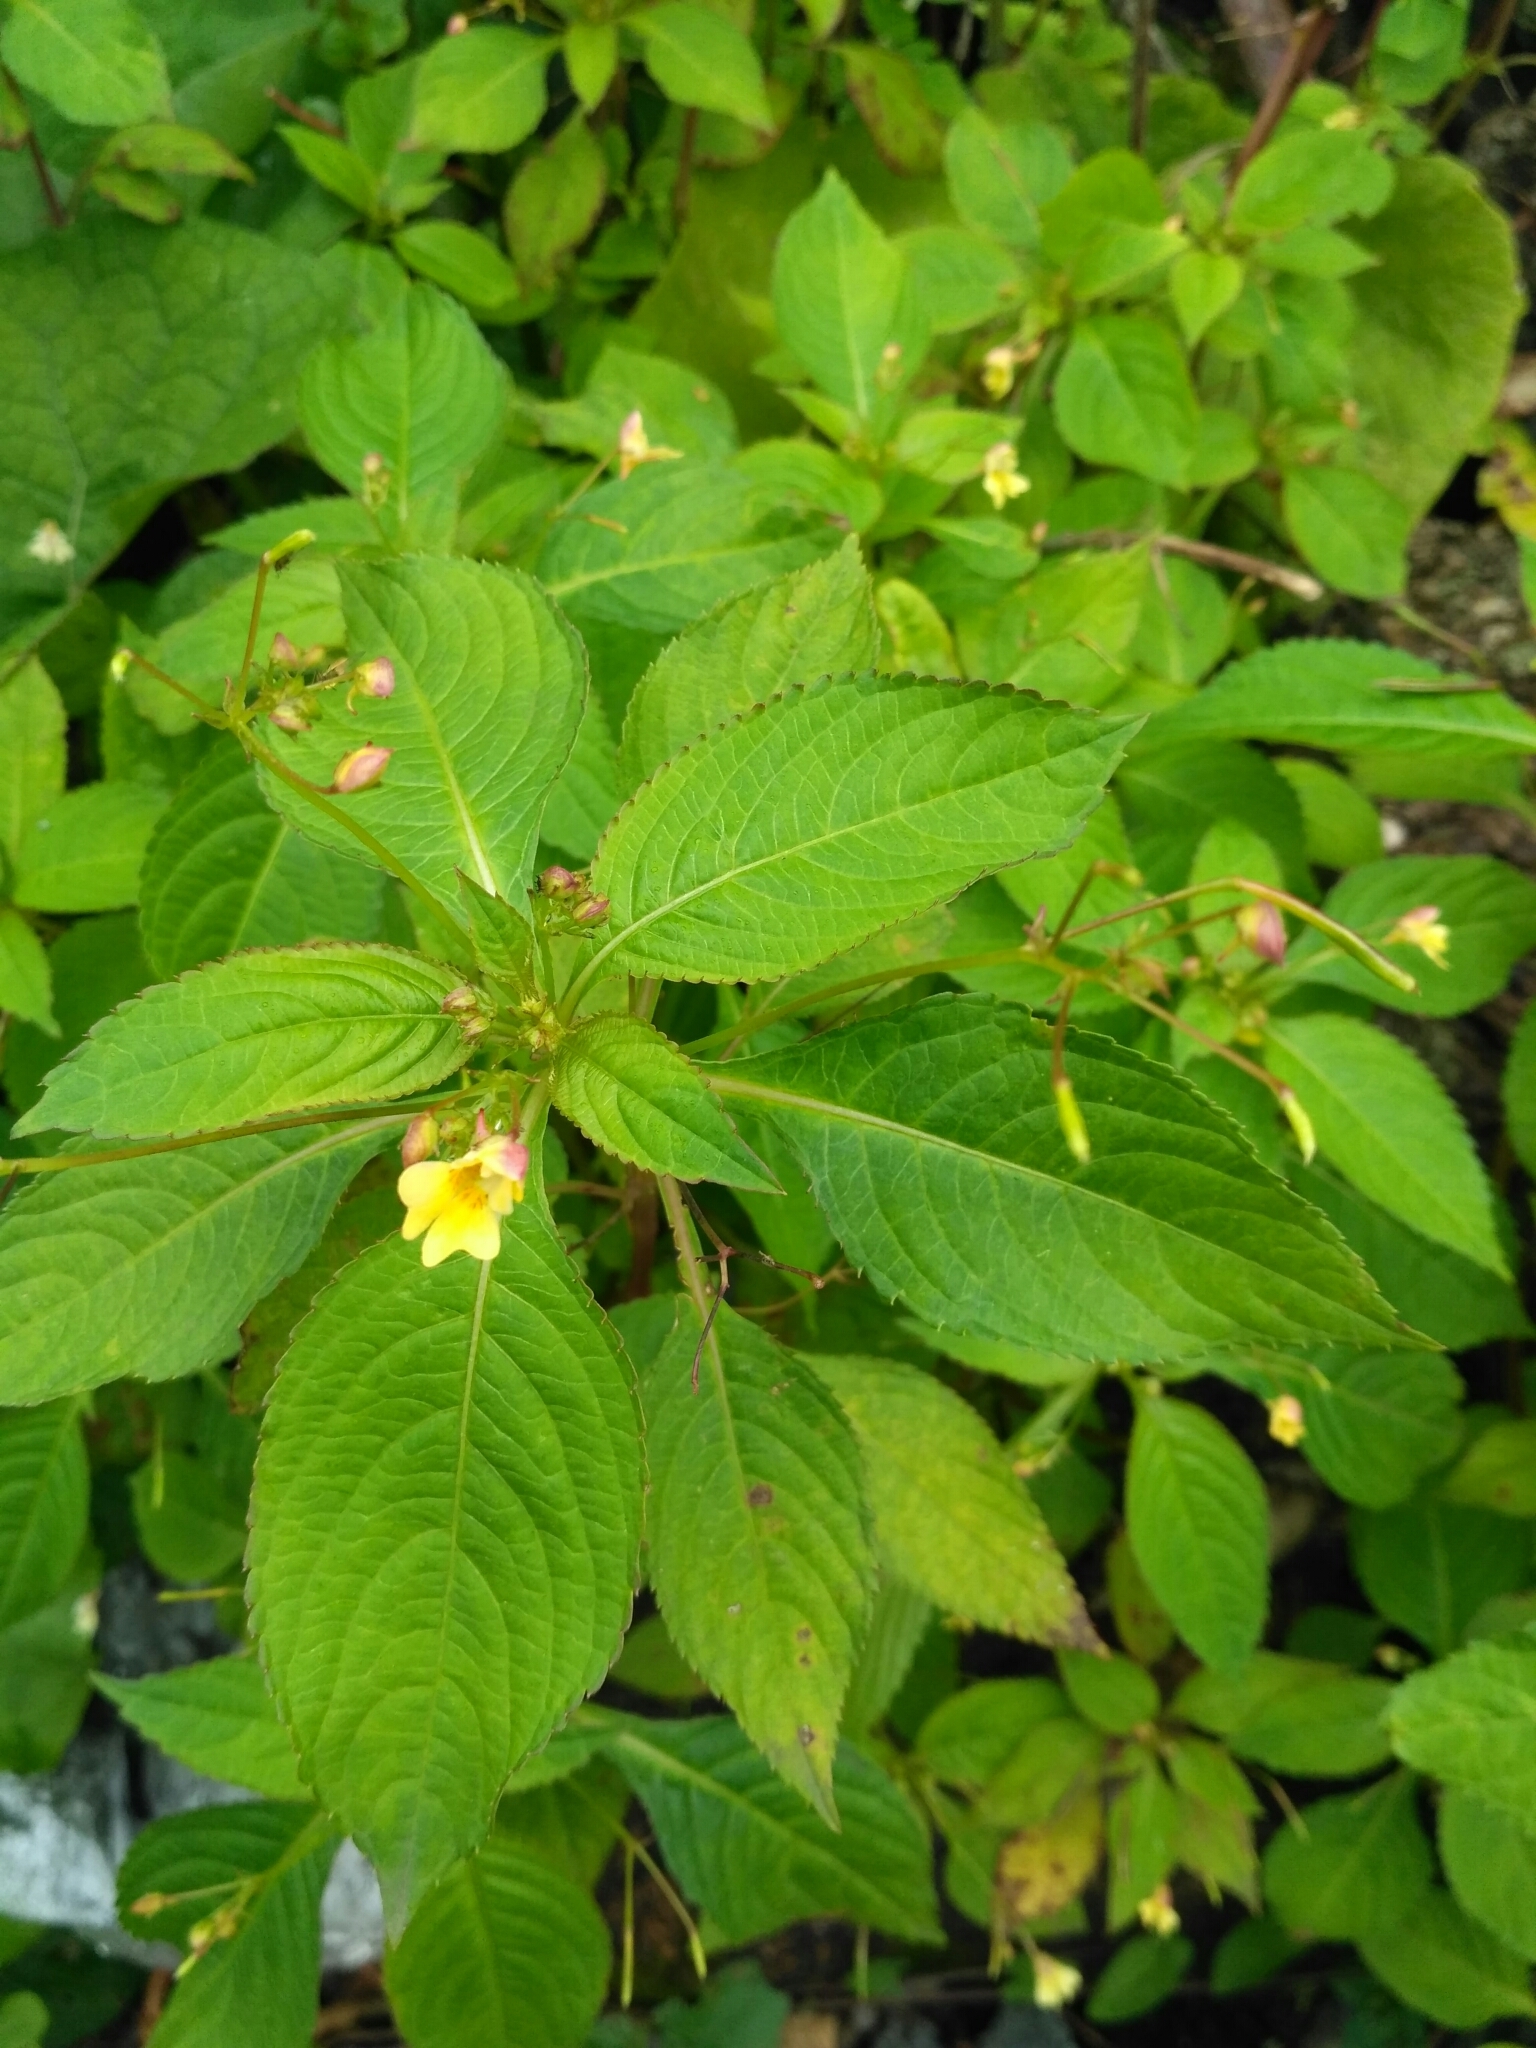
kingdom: Plantae
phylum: Tracheophyta
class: Magnoliopsida
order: Ericales
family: Balsaminaceae
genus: Impatiens
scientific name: Impatiens parviflora
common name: Small balsam
